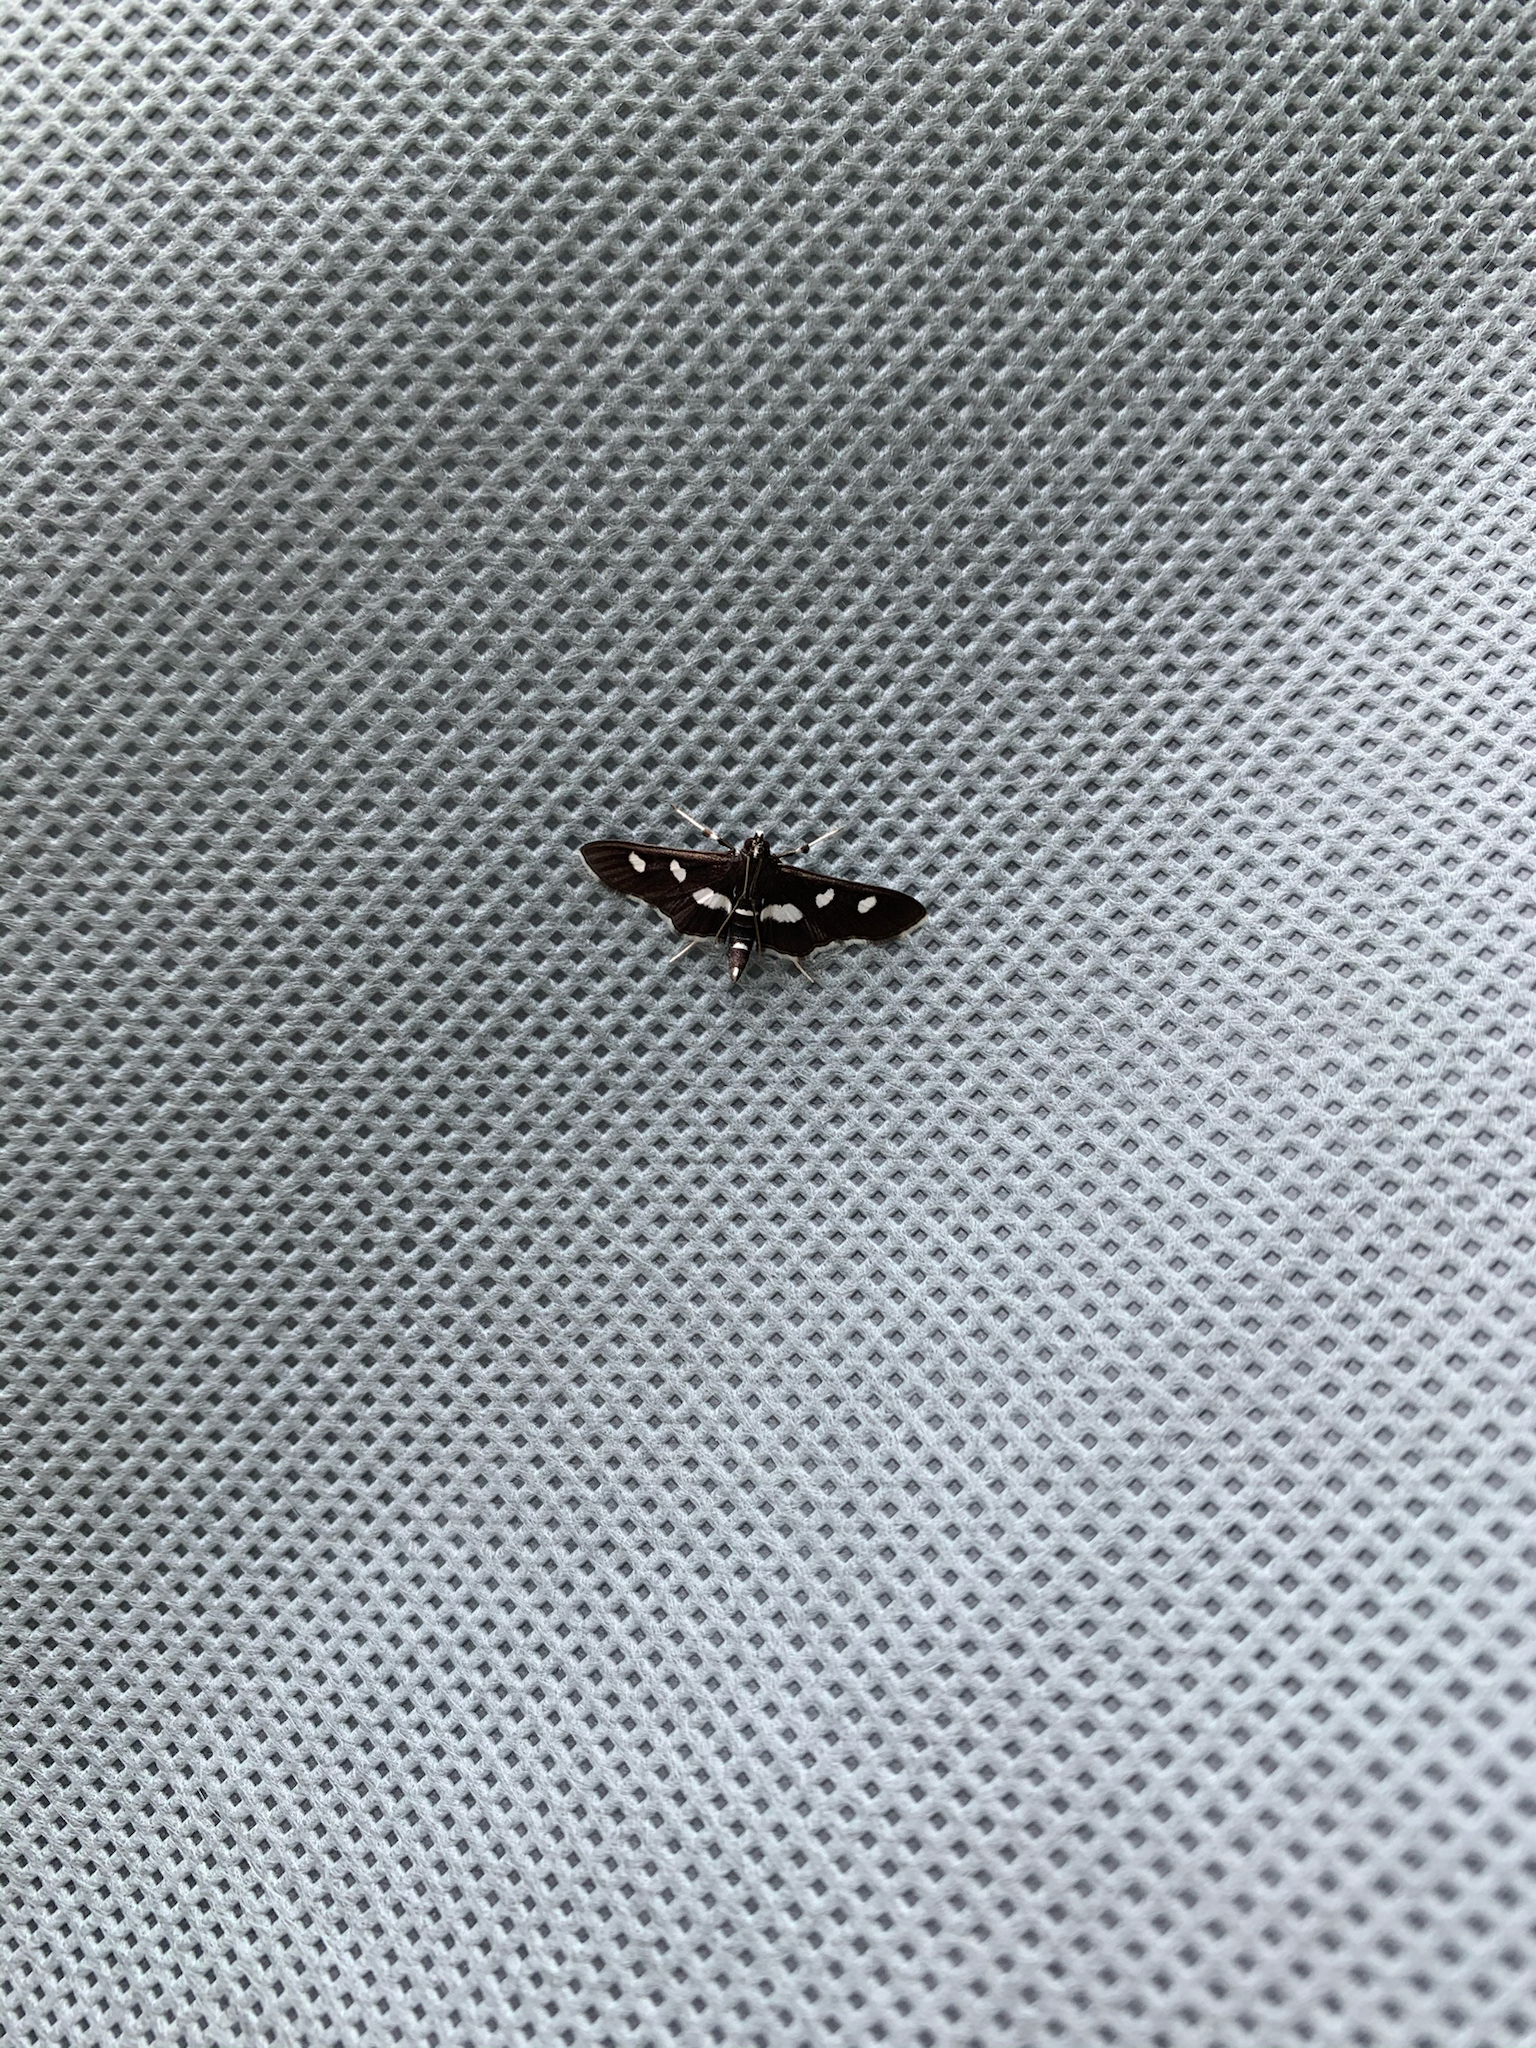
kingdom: Animalia
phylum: Arthropoda
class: Insecta
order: Lepidoptera
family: Crambidae
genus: Desmia
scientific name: Desmia
